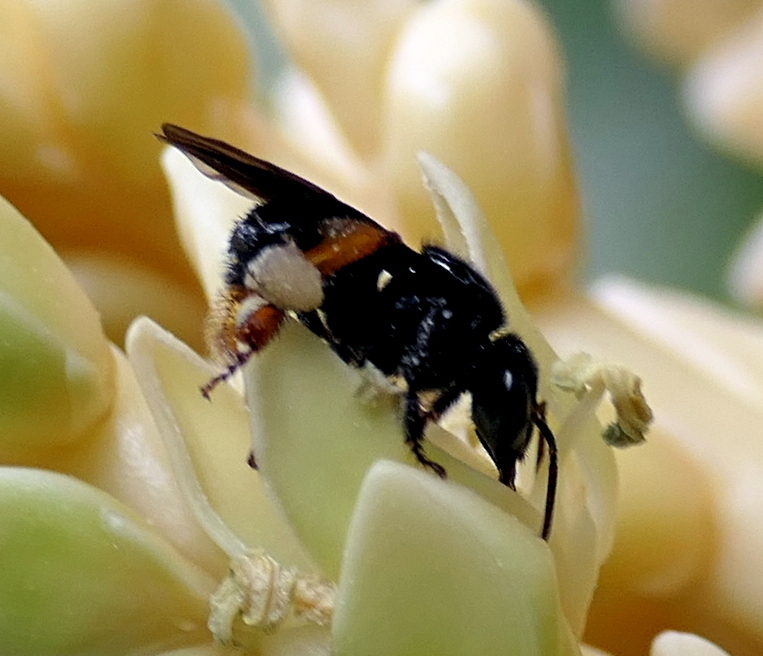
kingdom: Animalia
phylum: Arthropoda
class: Insecta
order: Hymenoptera
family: Apidae
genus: Trigona
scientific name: Trigona spinipes
